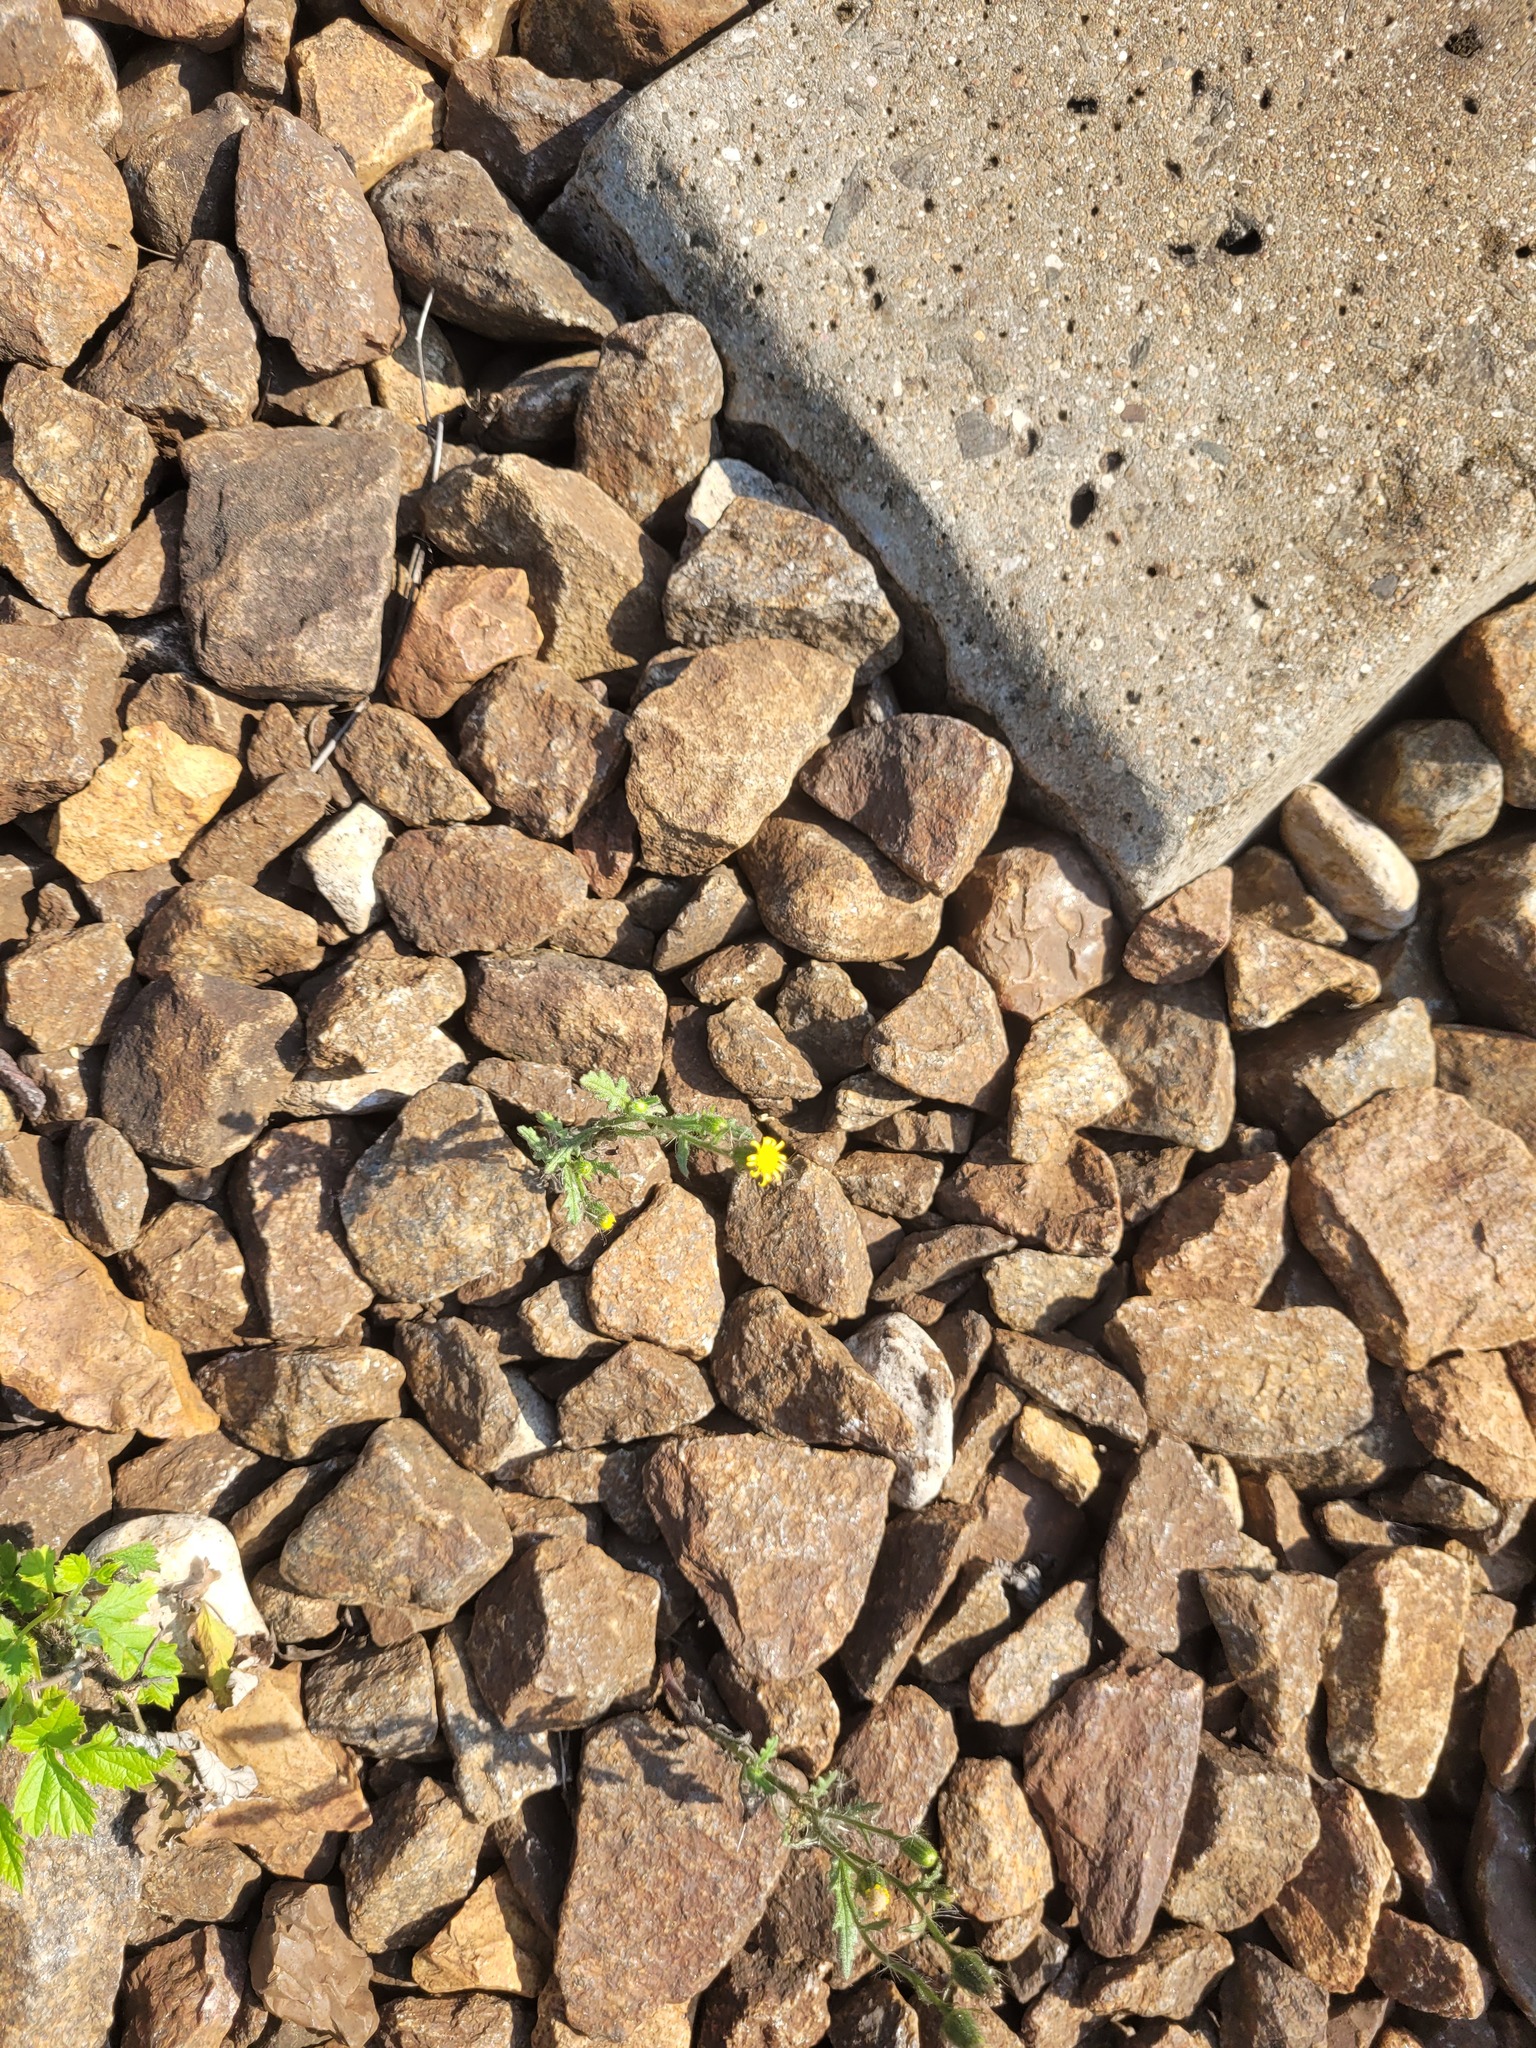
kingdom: Plantae
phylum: Tracheophyta
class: Magnoliopsida
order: Asterales
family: Asteraceae
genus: Senecio
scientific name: Senecio viscosus
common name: Sticky groundsel
